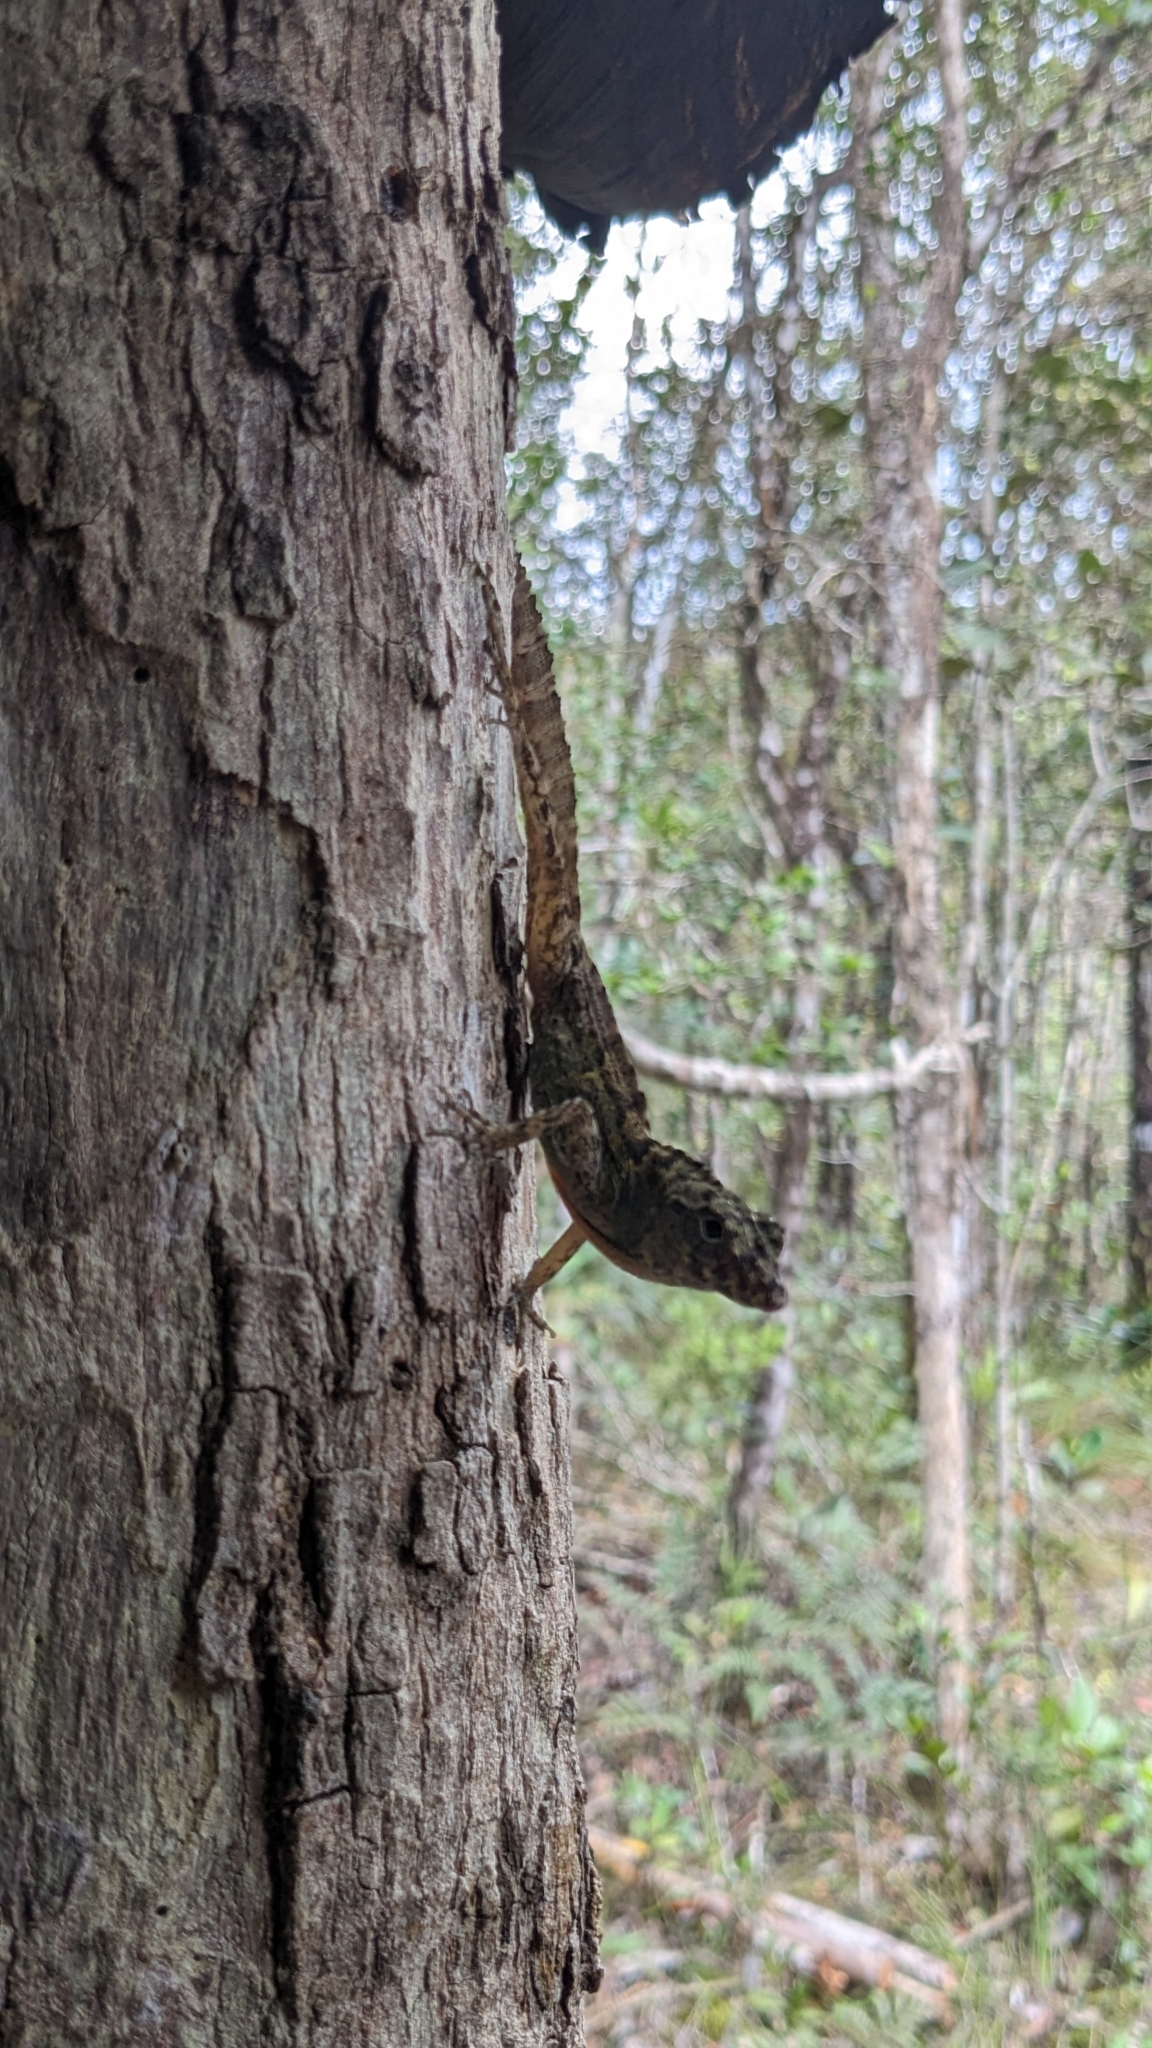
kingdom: Animalia
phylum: Chordata
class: Squamata
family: Dactyloidae
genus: Anolis
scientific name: Anolis rubribarbus
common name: Sagua de tanamo anole
